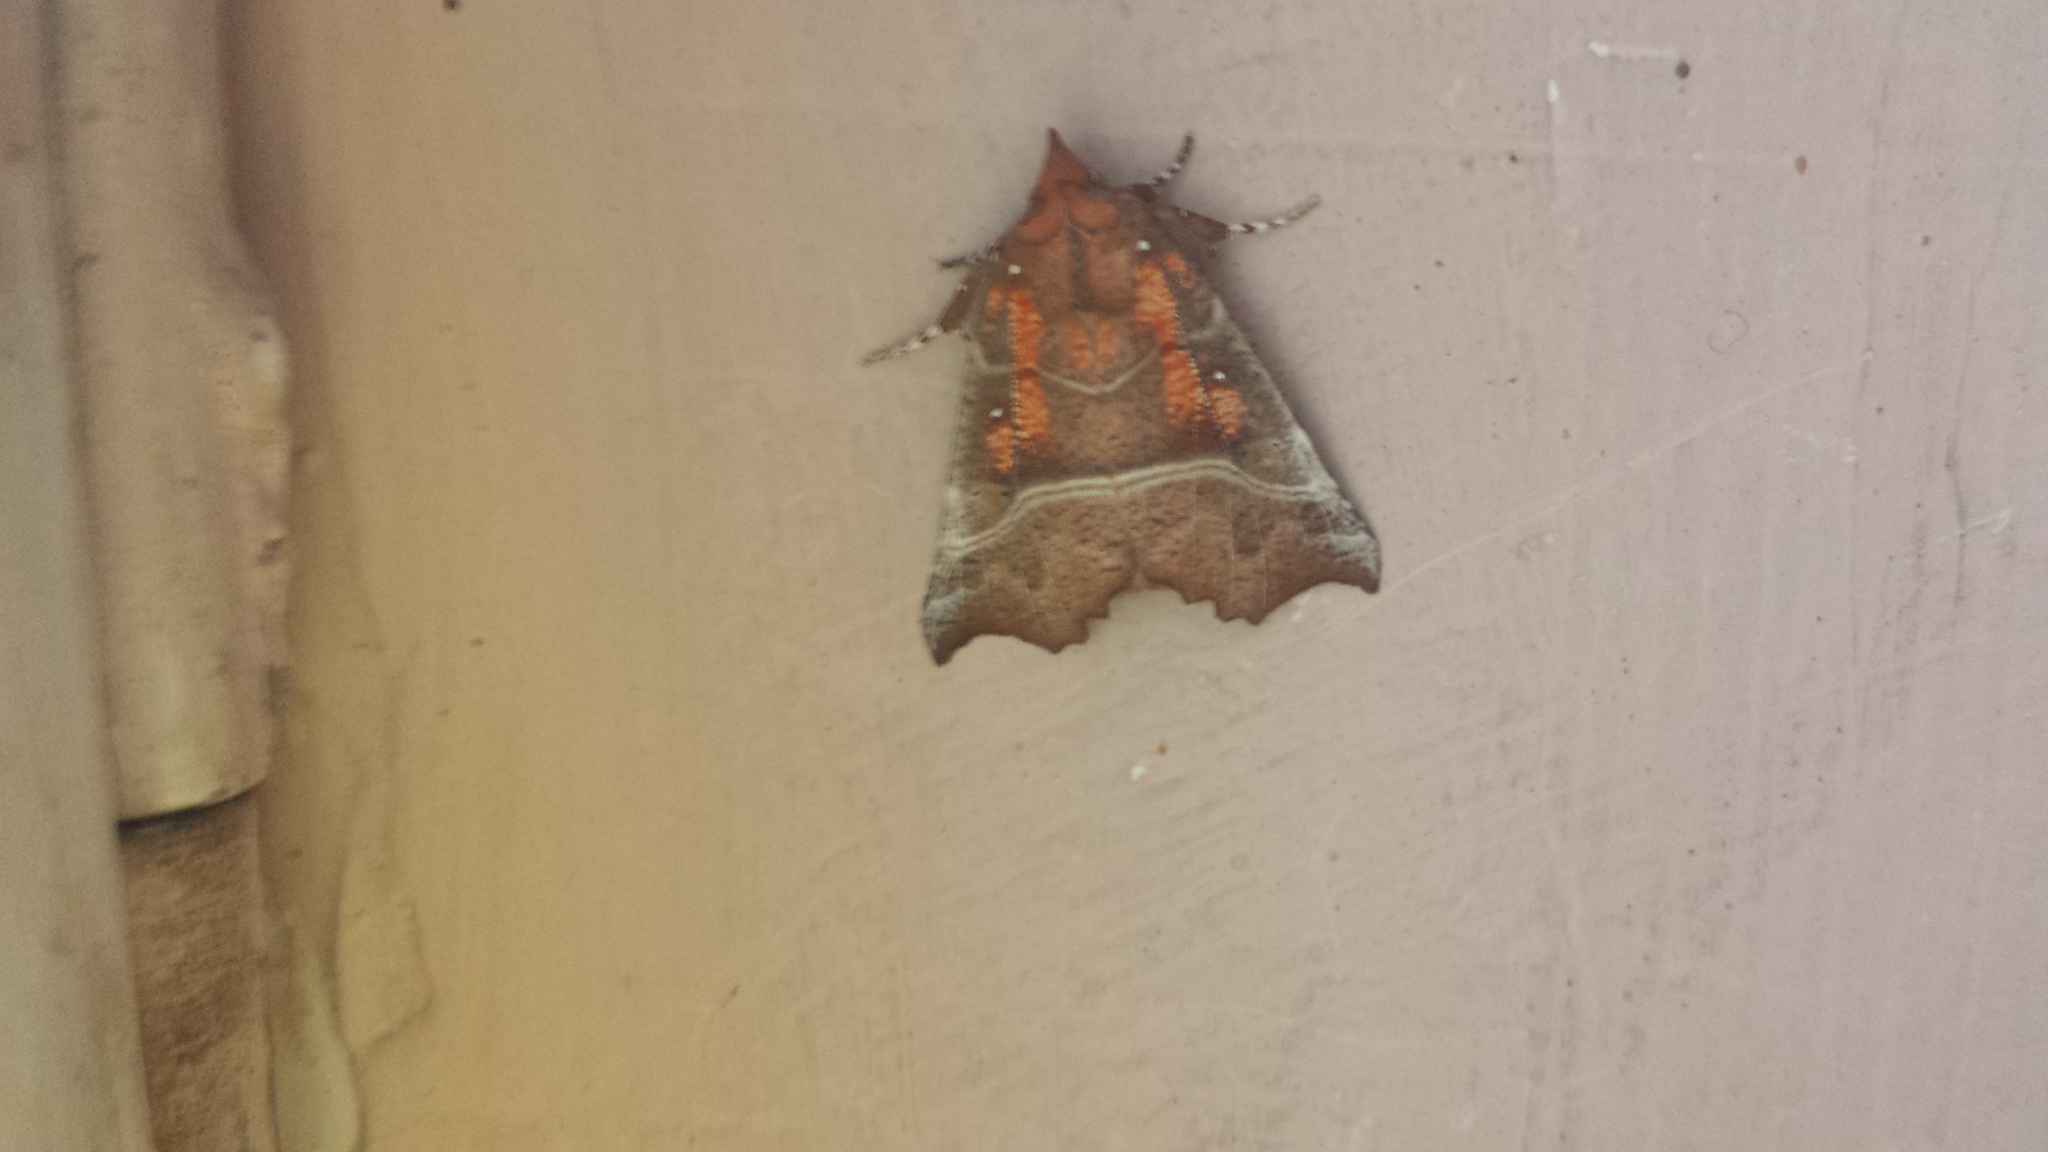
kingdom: Animalia
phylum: Arthropoda
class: Insecta
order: Lepidoptera
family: Erebidae
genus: Scoliopteryx
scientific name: Scoliopteryx libatrix
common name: Herald
